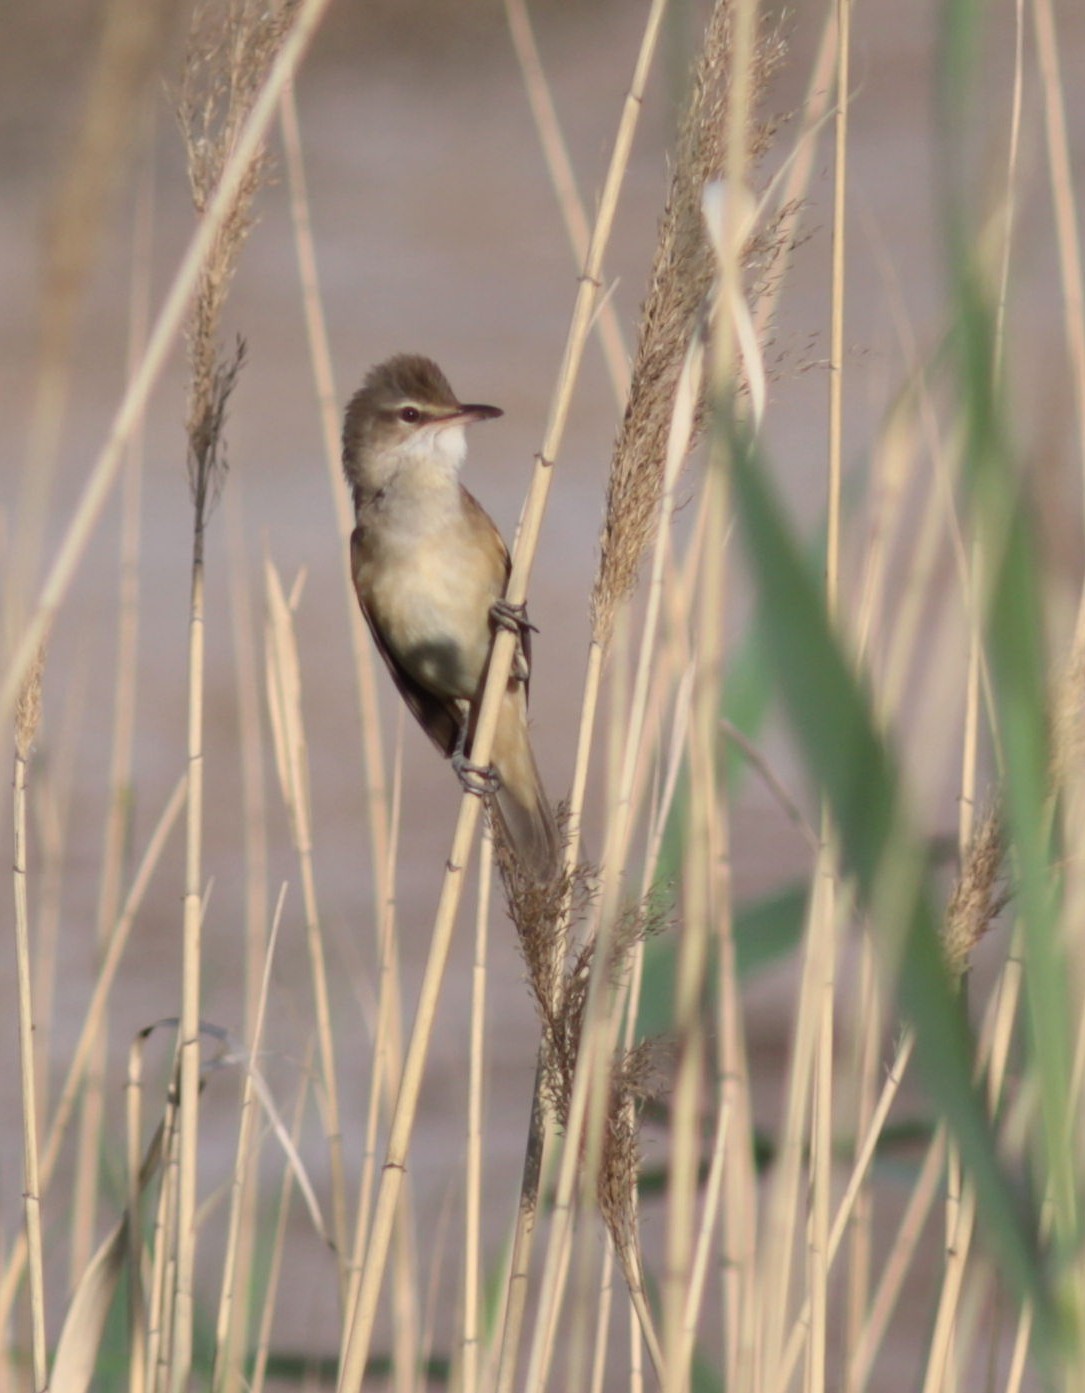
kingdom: Animalia
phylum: Chordata
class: Aves
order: Passeriformes
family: Acrocephalidae
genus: Acrocephalus
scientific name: Acrocephalus arundinaceus
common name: Great reed warbler
